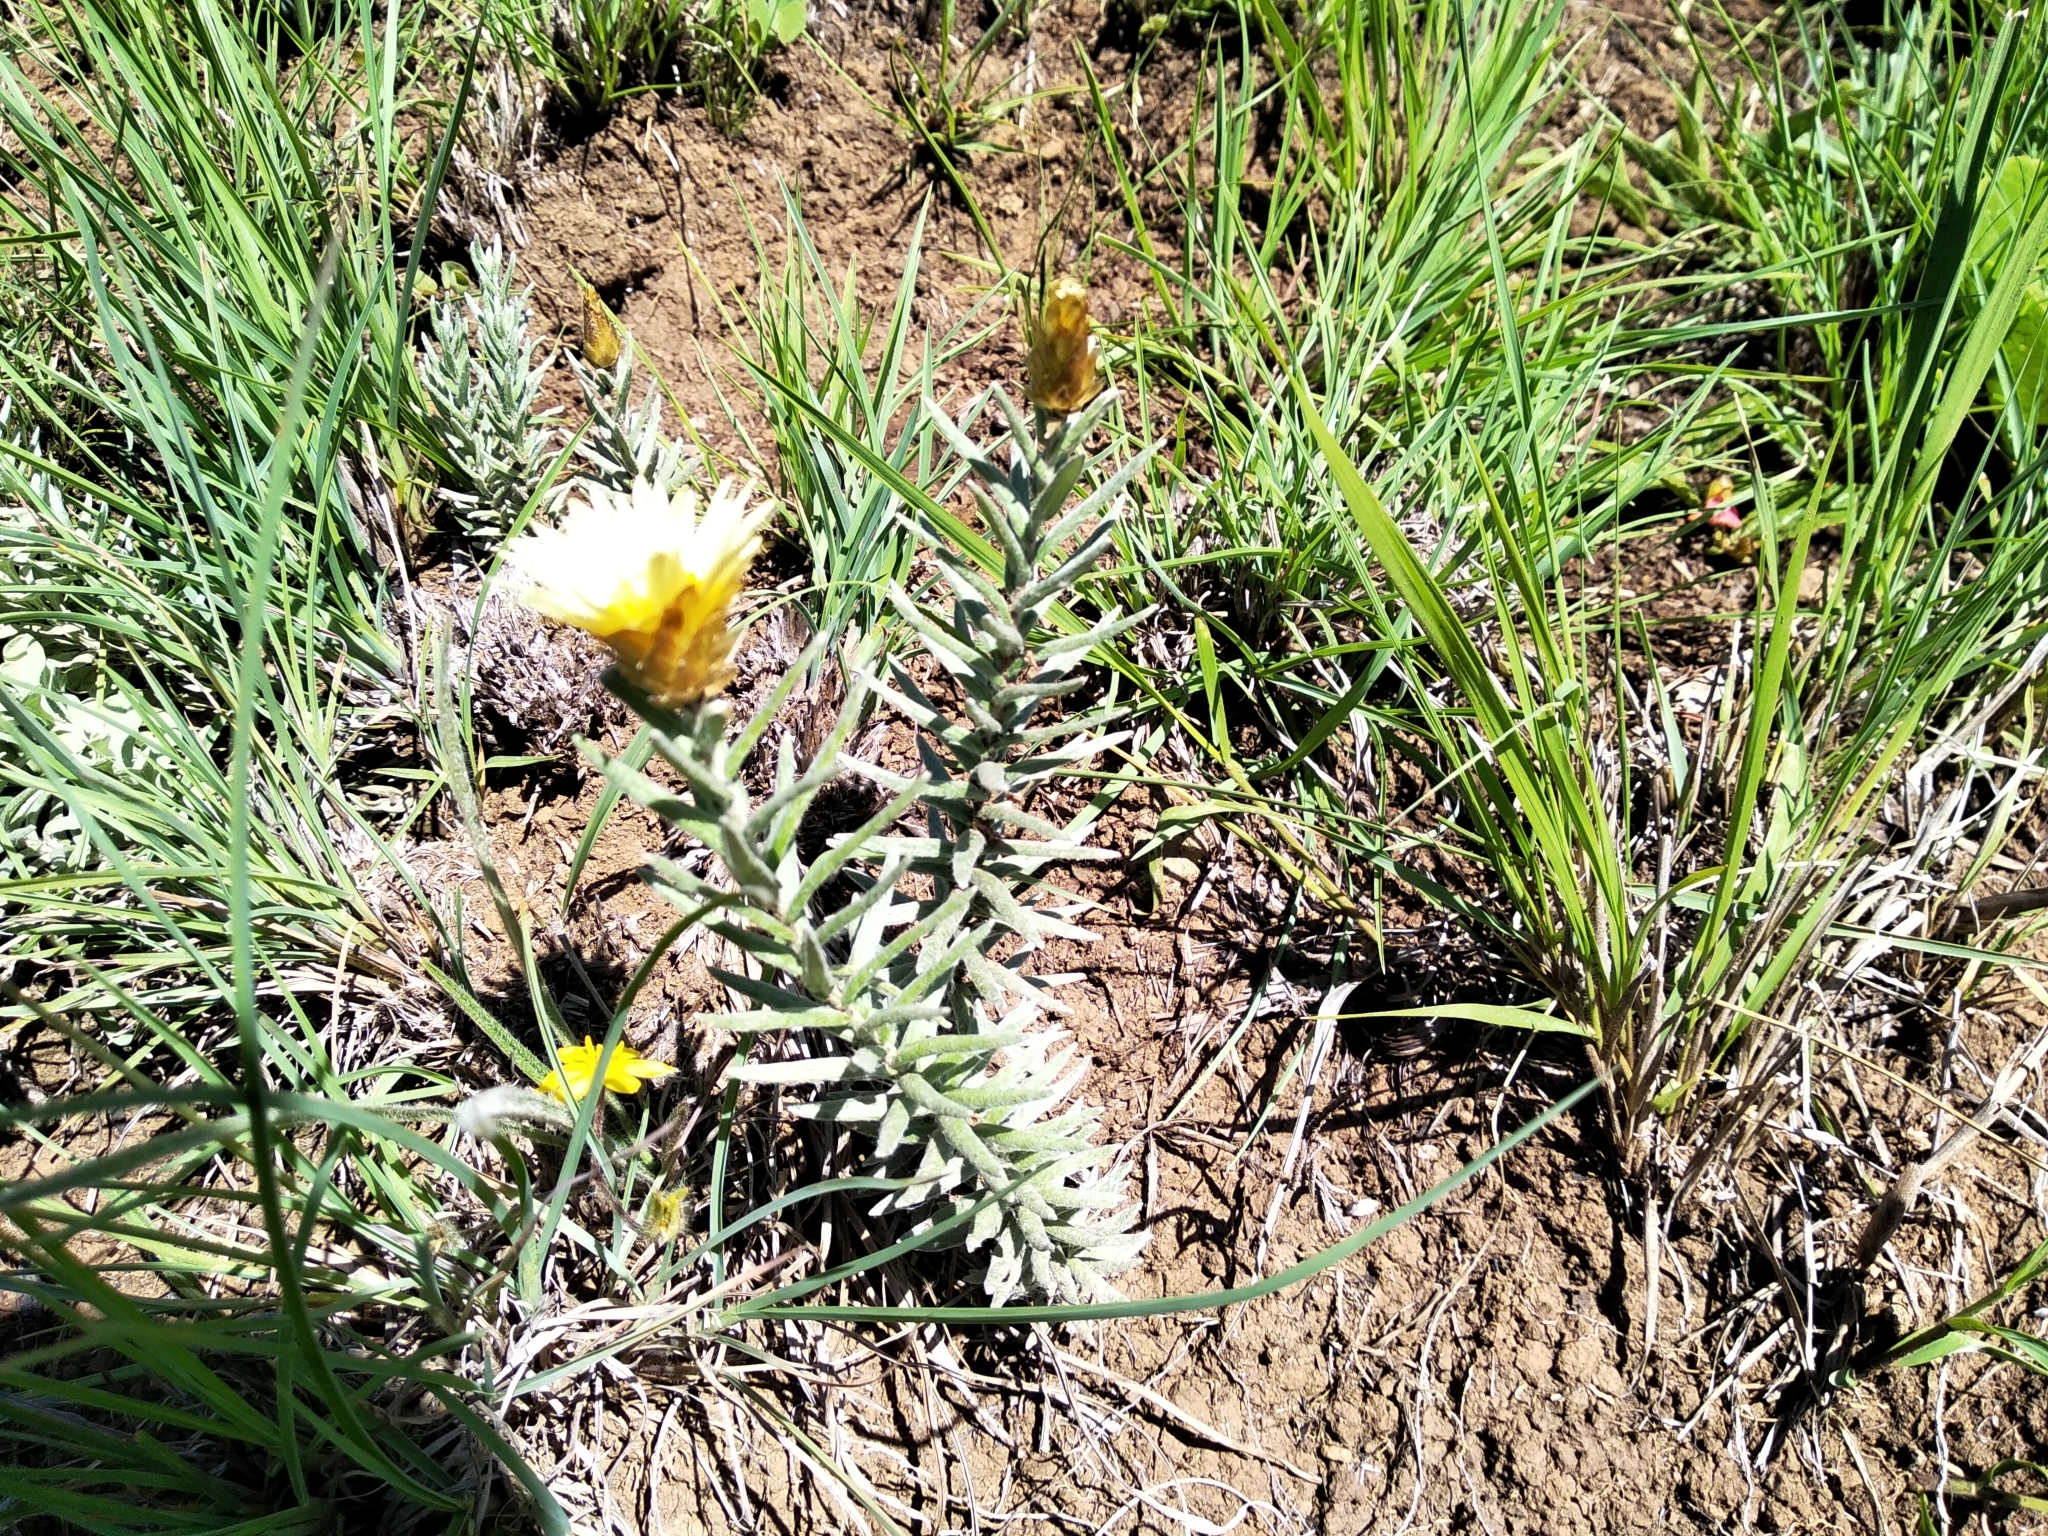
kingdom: Plantae
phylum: Tracheophyta
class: Magnoliopsida
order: Asterales
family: Asteraceae
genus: Helichrysum
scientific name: Helichrysum herbaceum
